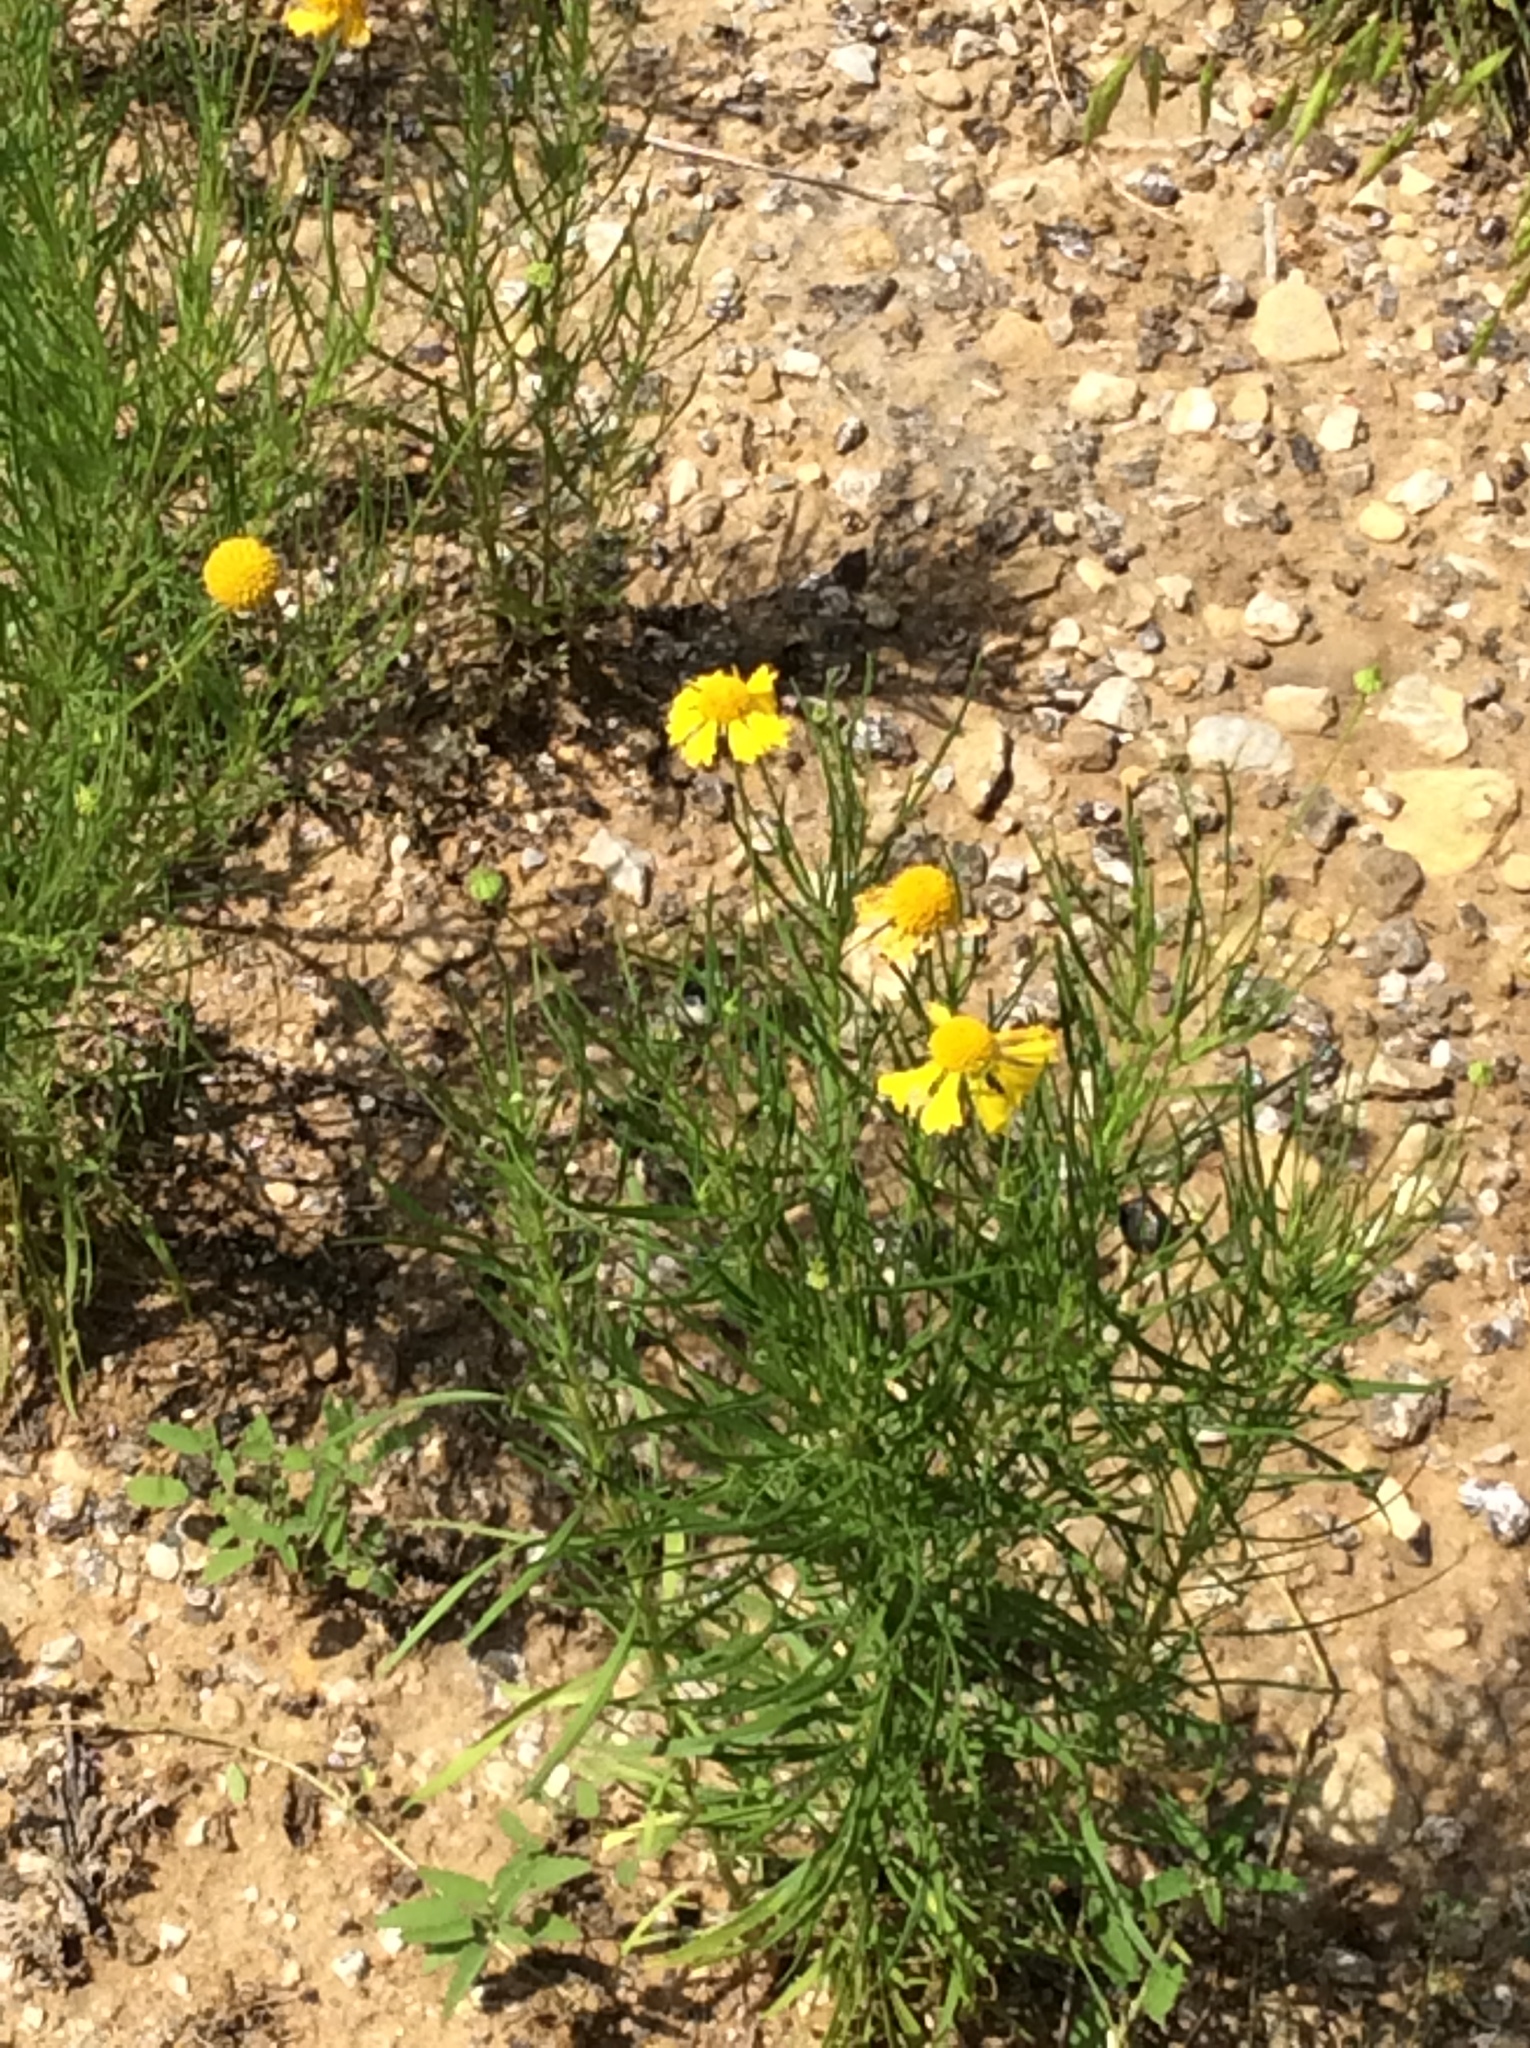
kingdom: Plantae
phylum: Tracheophyta
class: Magnoliopsida
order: Asterales
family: Asteraceae
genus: Helenium
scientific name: Helenium amarum
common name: Bitter sneezeweed
